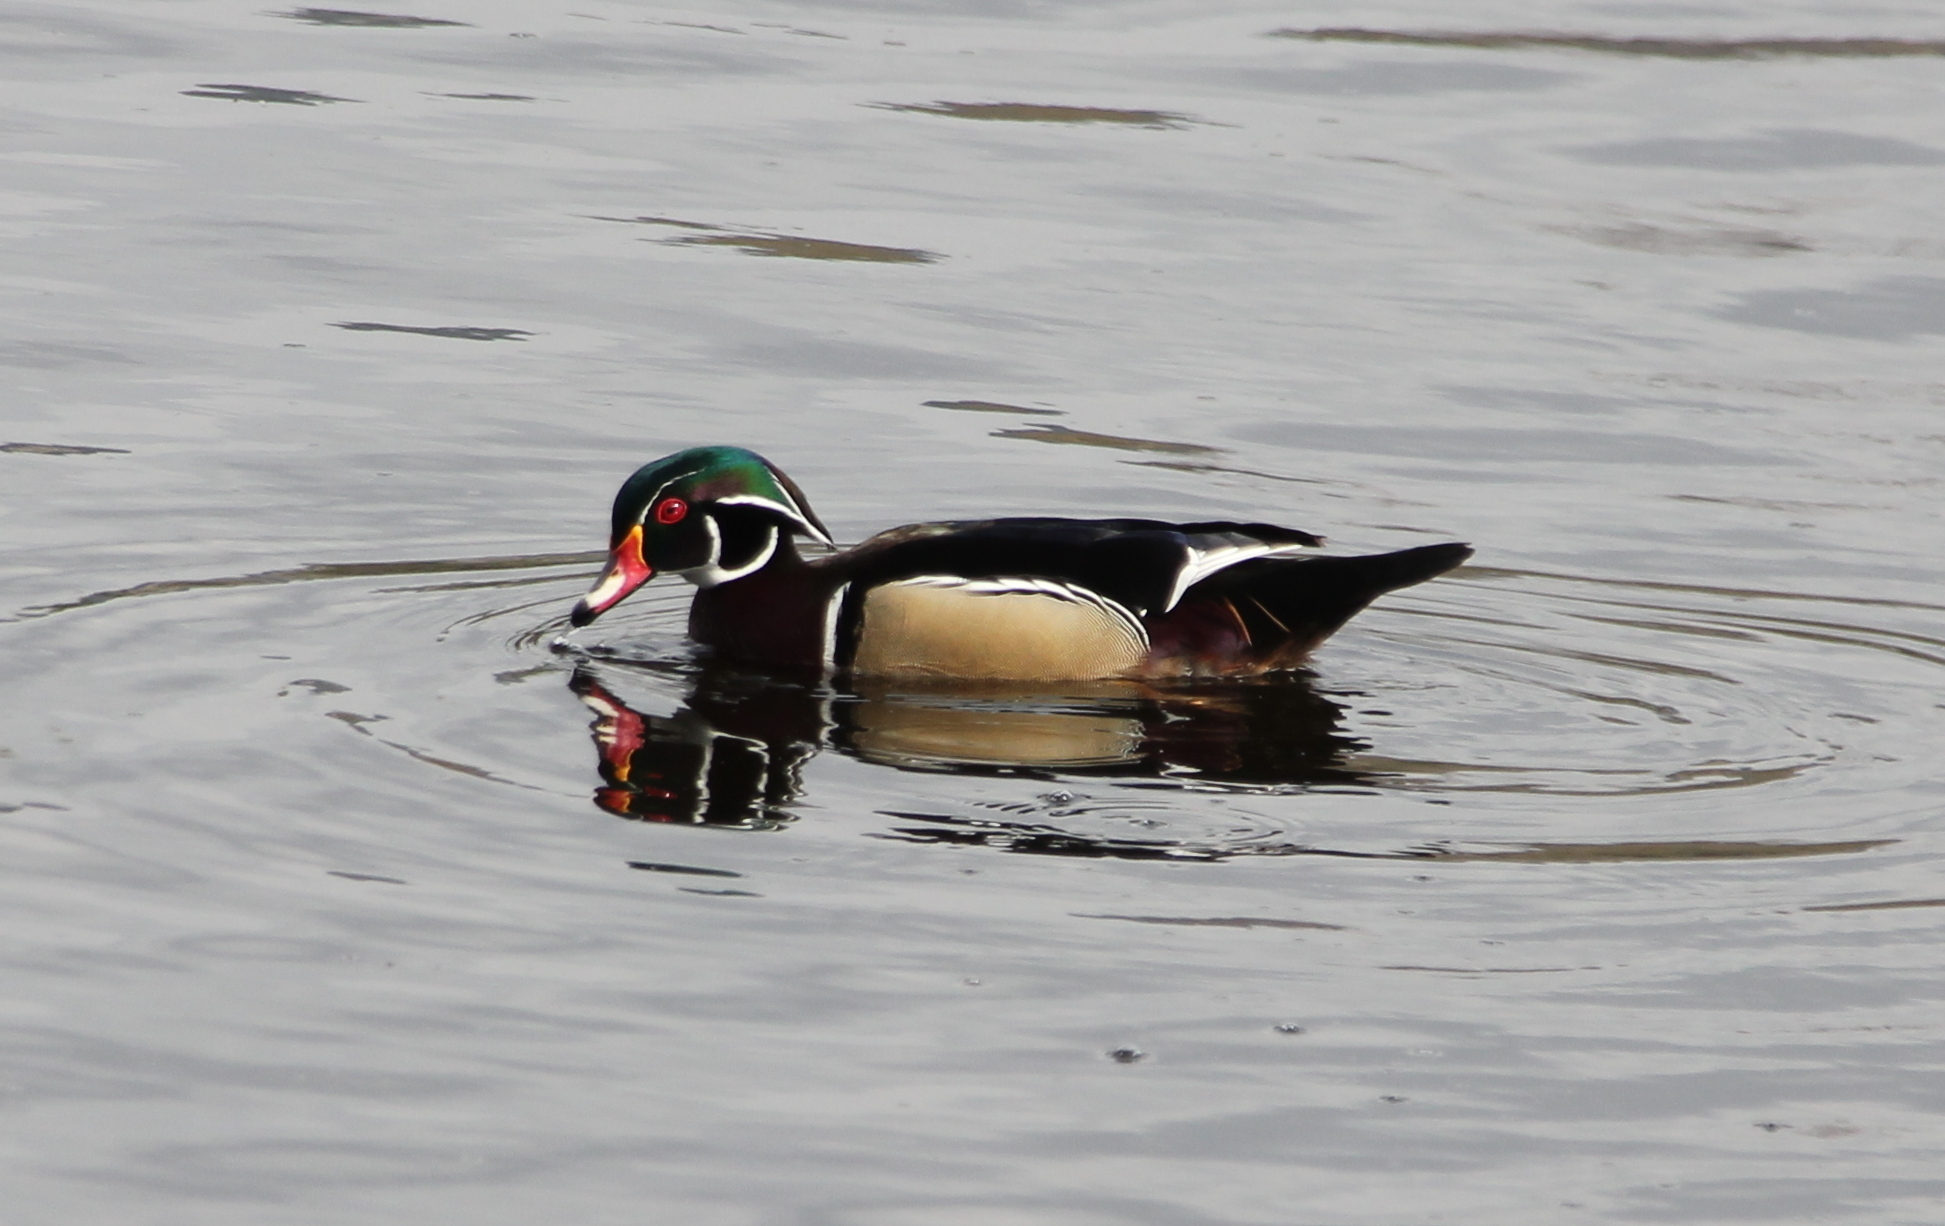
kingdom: Animalia
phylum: Chordata
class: Aves
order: Anseriformes
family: Anatidae
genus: Aix
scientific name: Aix sponsa
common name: Wood duck
